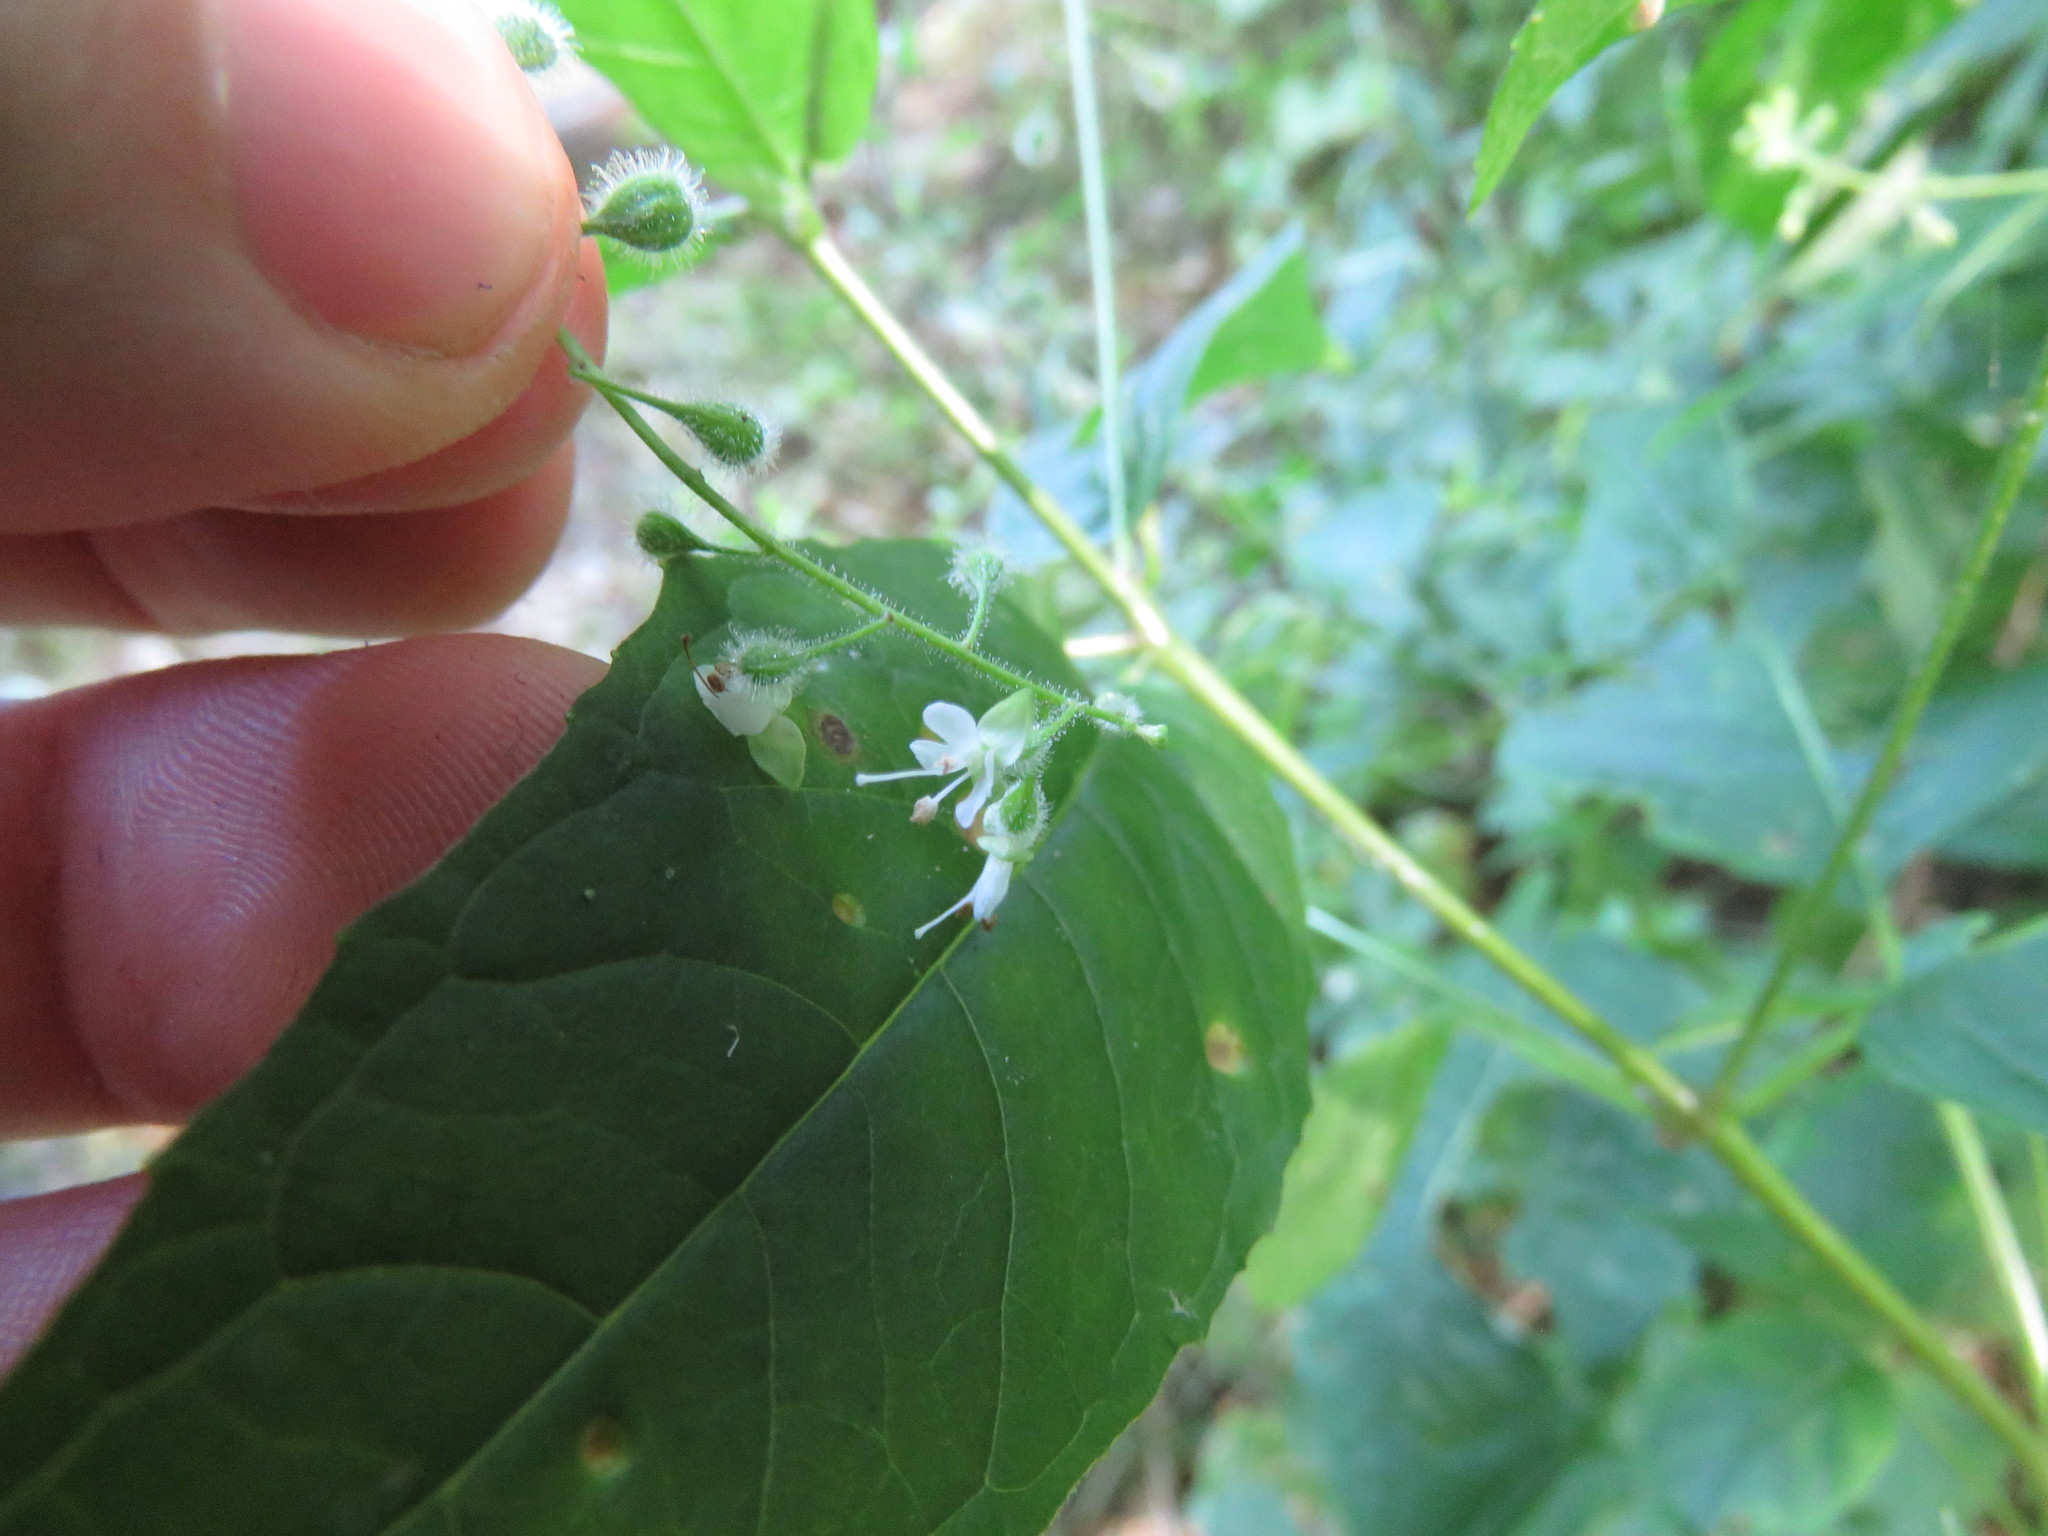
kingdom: Plantae
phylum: Tracheophyta
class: Magnoliopsida
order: Myrtales
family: Onagraceae
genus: Circaea
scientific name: Circaea canadensis
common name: Broad-leaved enchanter's nightshade
